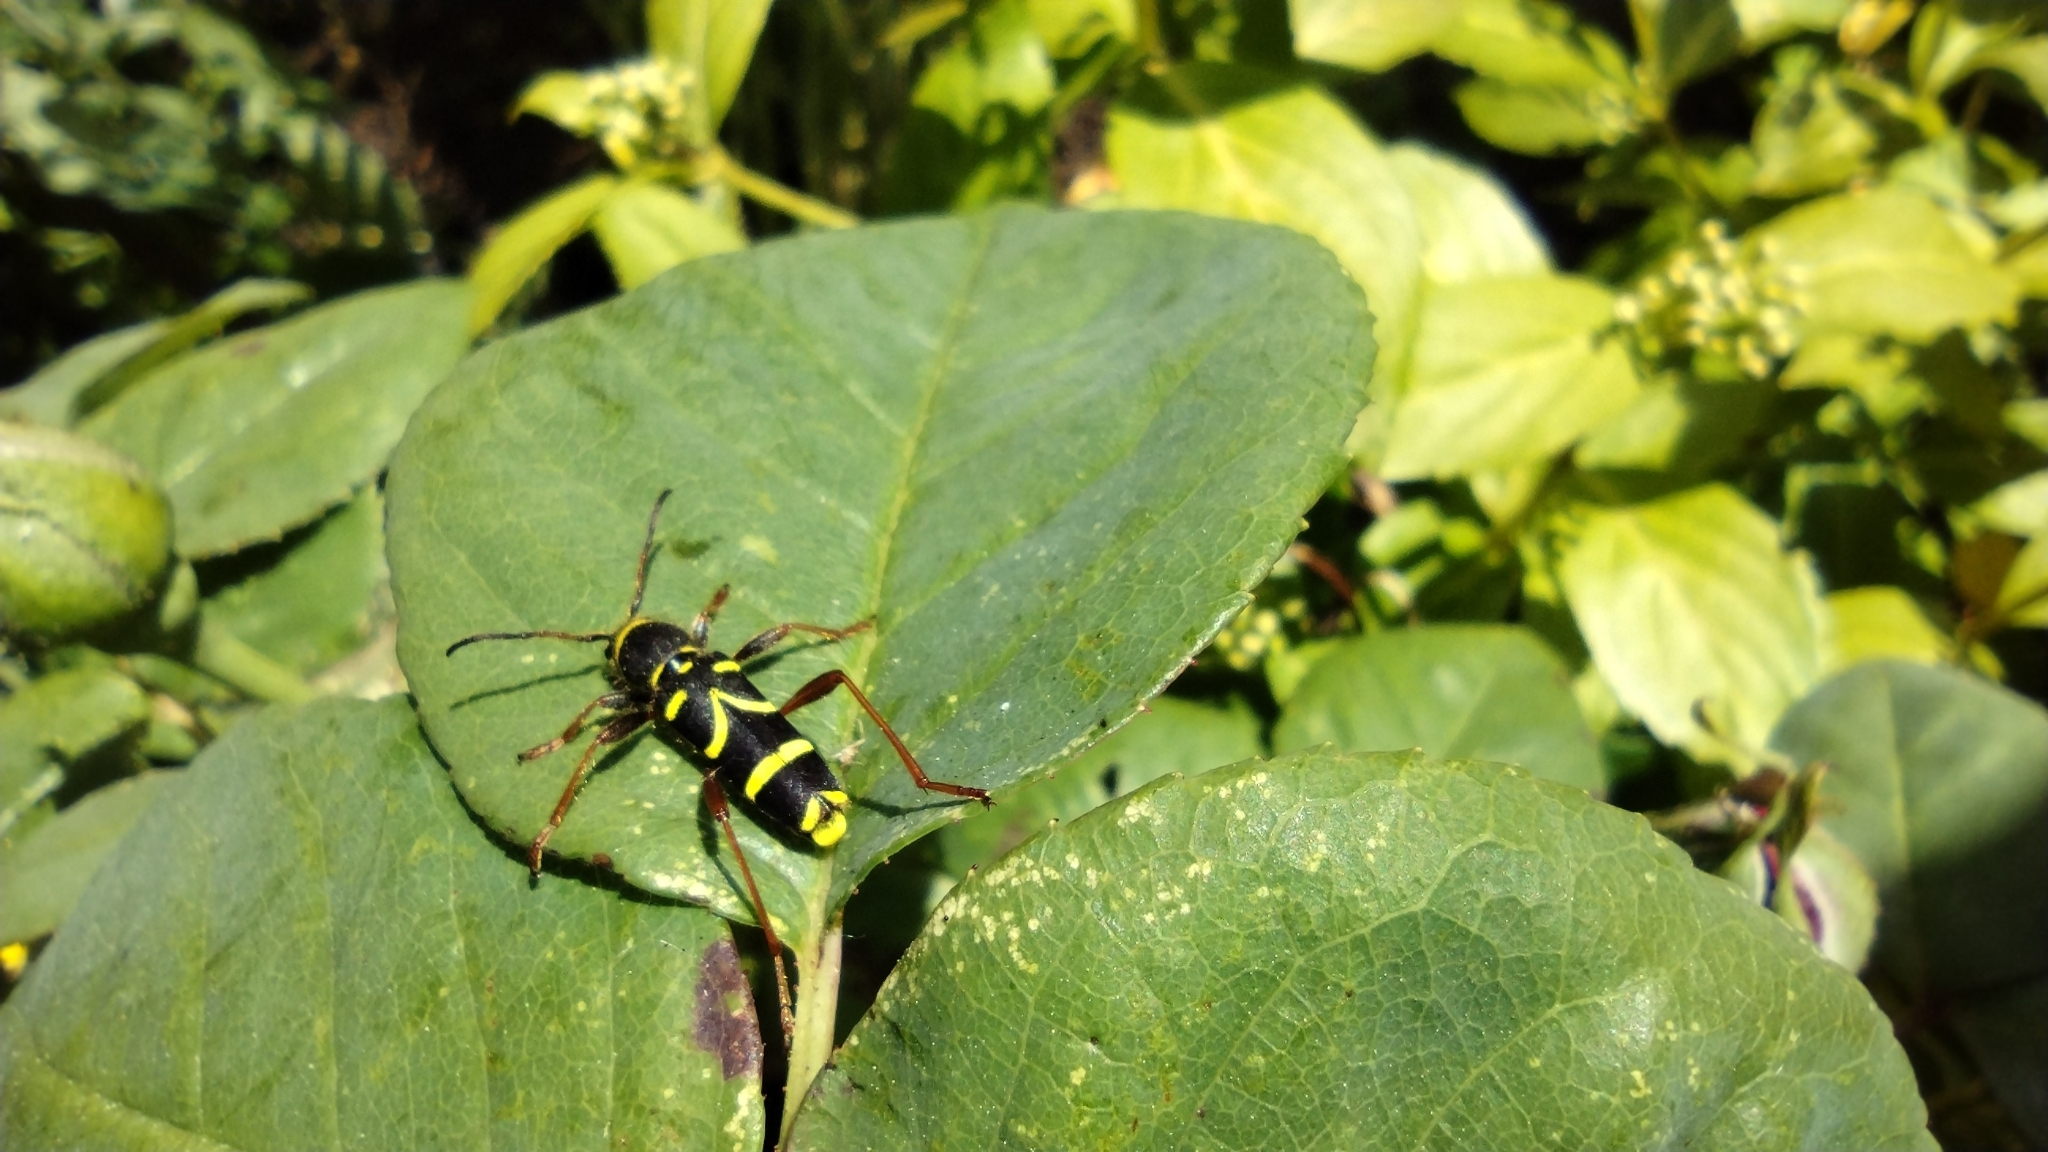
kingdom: Animalia
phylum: Arthropoda
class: Insecta
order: Coleoptera
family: Cerambycidae
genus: Clytus
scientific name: Clytus arietis
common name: Wasp beetle
